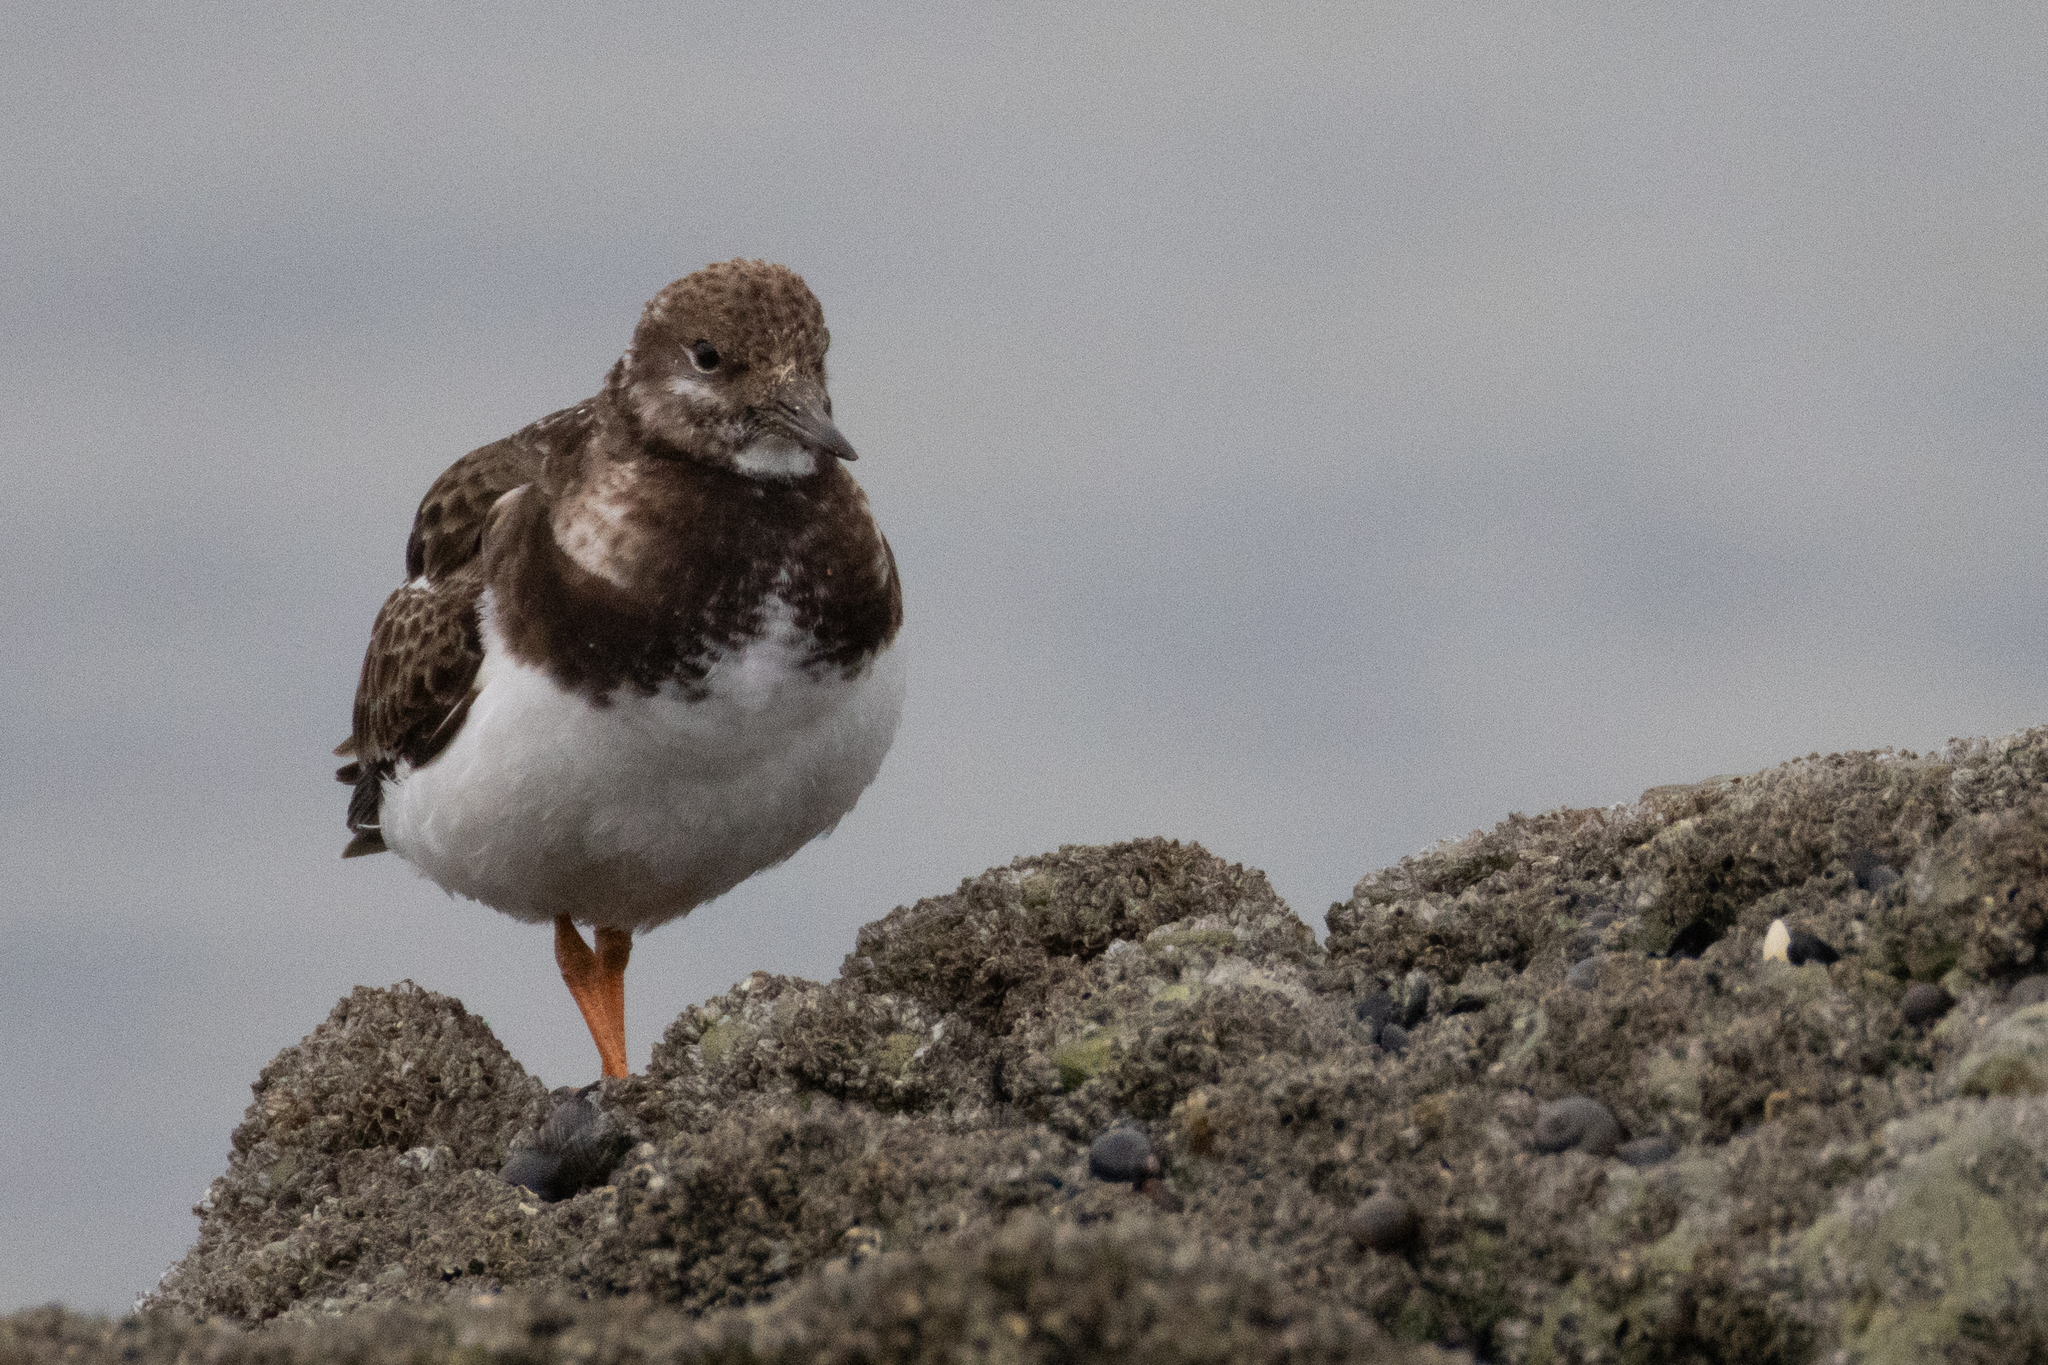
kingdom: Animalia
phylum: Chordata
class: Aves
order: Charadriiformes
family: Scolopacidae
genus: Arenaria
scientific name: Arenaria interpres
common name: Ruddy turnstone
